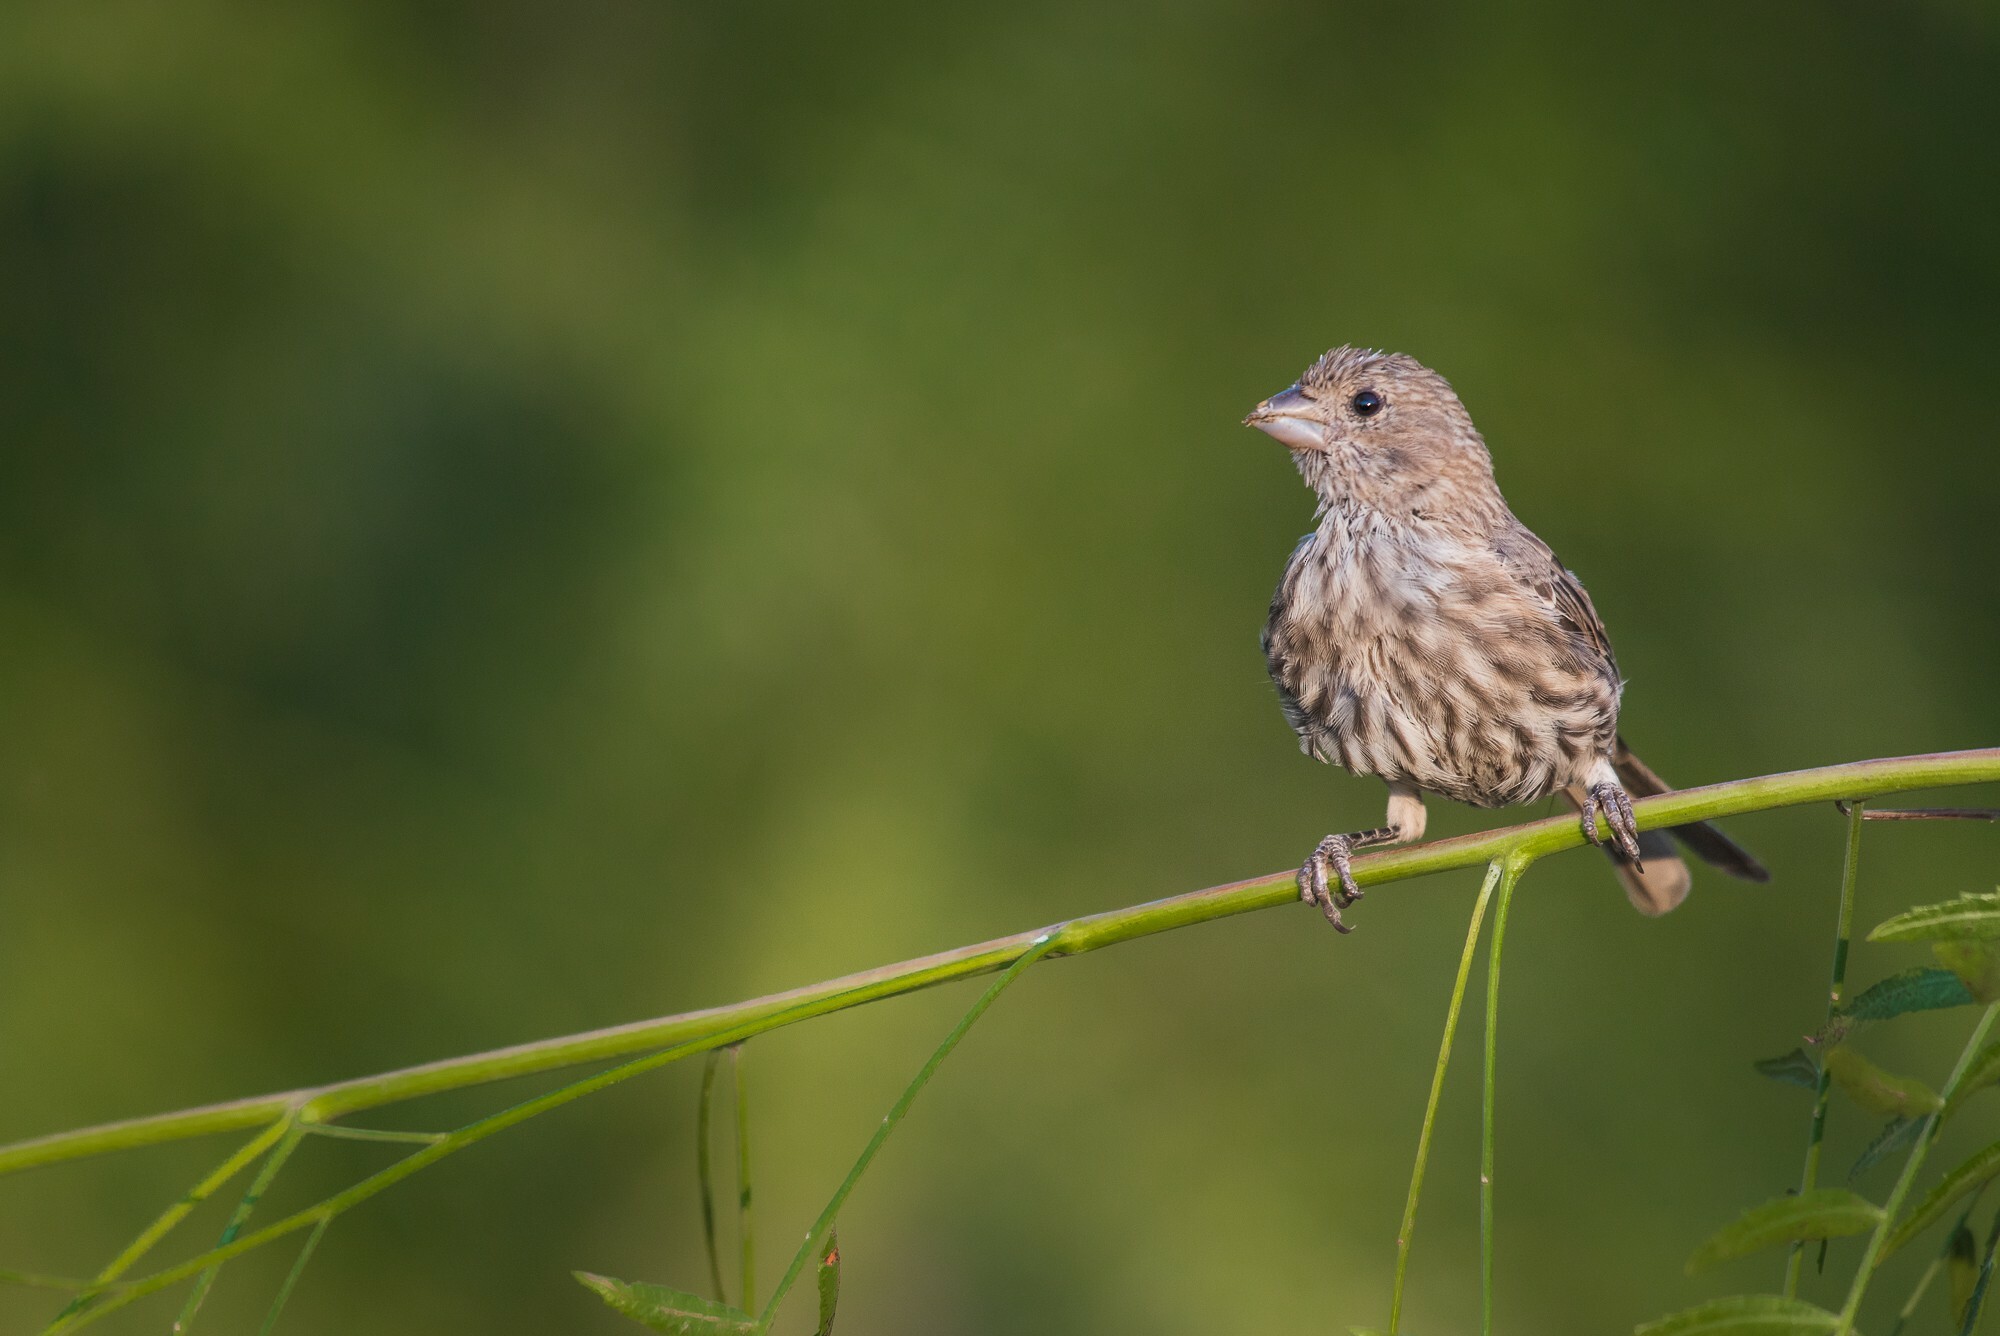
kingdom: Animalia
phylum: Chordata
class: Aves
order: Passeriformes
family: Fringillidae
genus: Haemorhous
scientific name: Haemorhous mexicanus
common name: House finch
